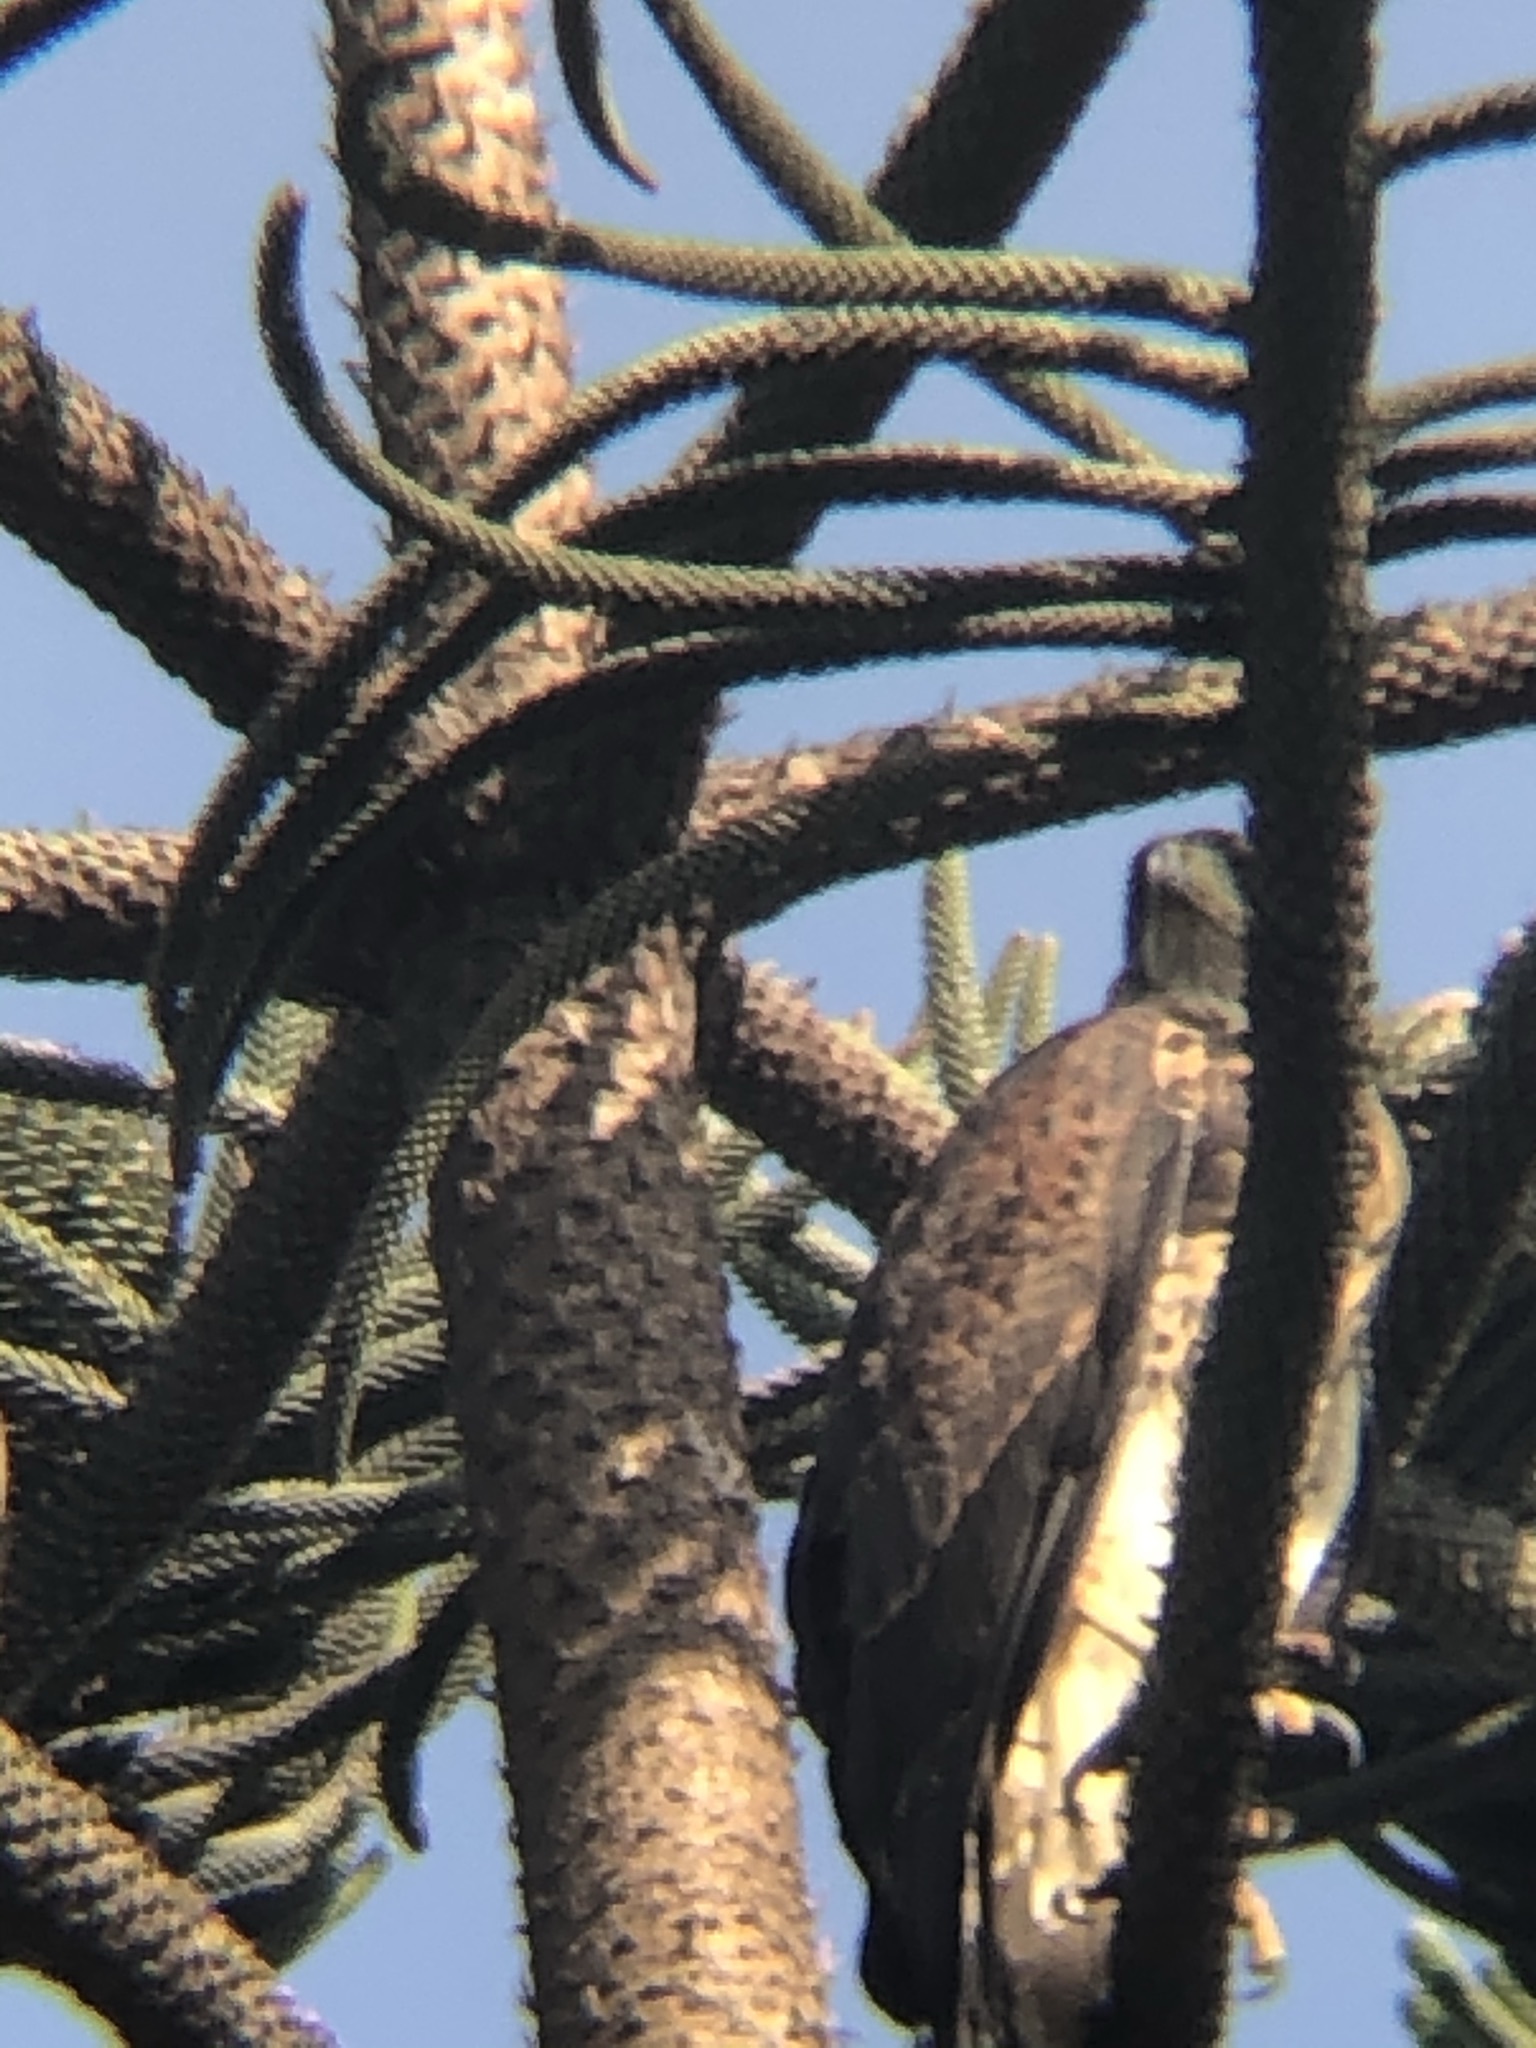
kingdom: Animalia
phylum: Chordata
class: Aves
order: Accipitriformes
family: Accipitridae
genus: Parabuteo
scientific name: Parabuteo unicinctus
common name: Harris's hawk
